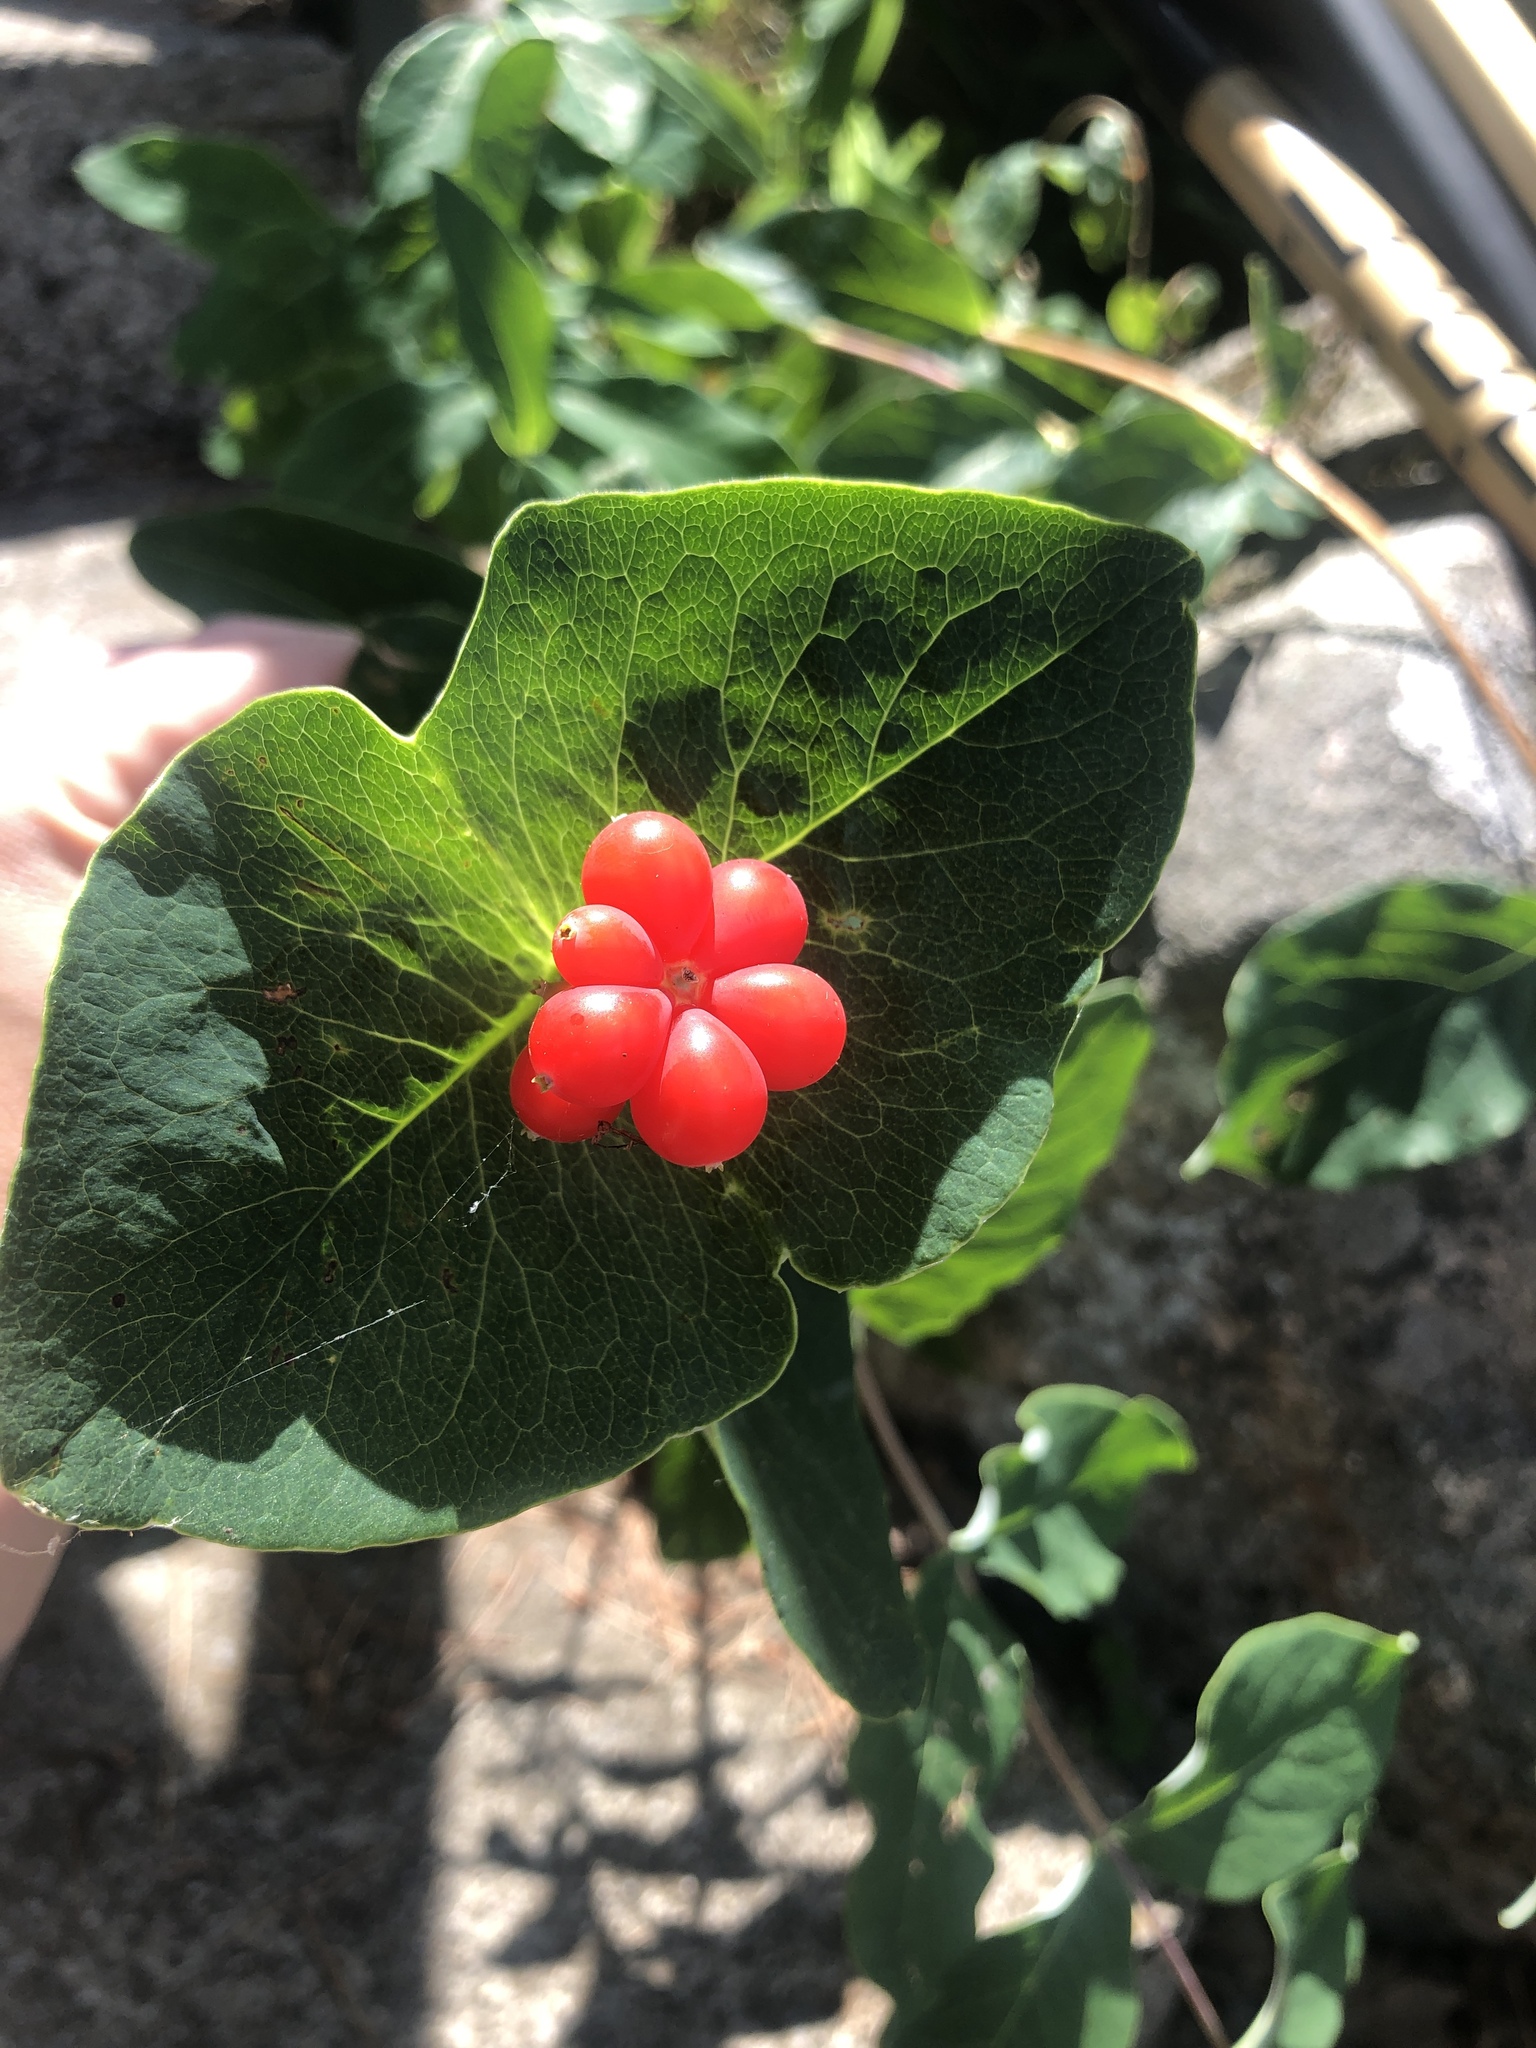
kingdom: Plantae
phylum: Tracheophyta
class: Magnoliopsida
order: Dipsacales
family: Caprifoliaceae
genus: Lonicera
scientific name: Lonicera dioica
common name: Limber honeysuckle
